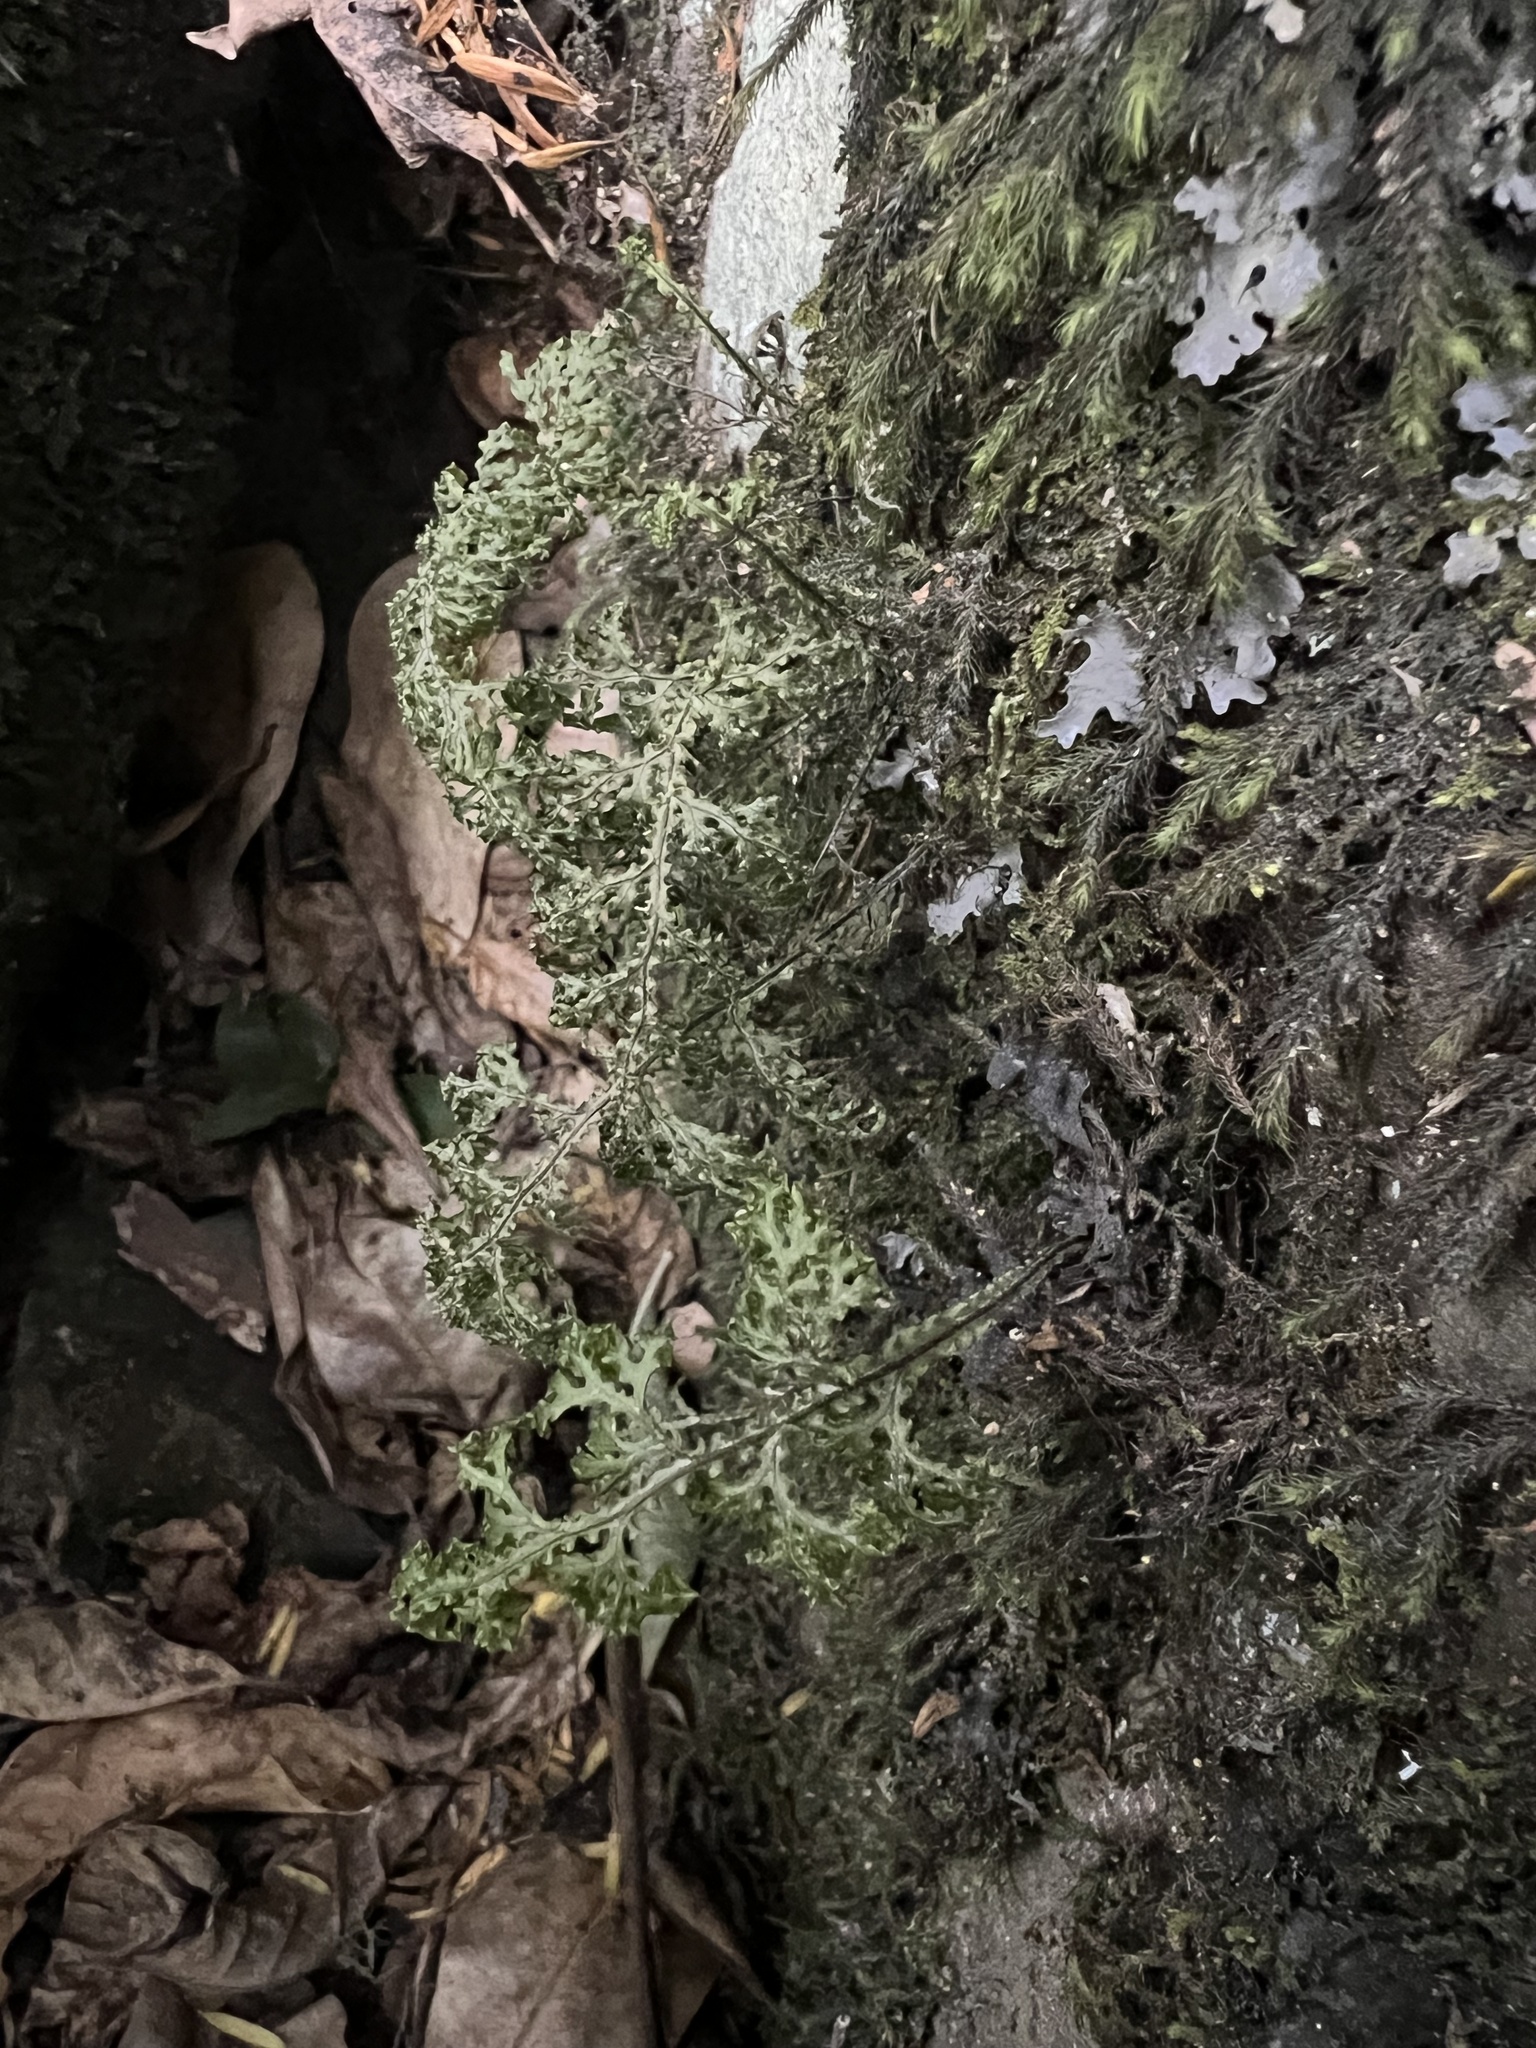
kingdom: Plantae
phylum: Tracheophyta
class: Polypodiopsida
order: Hymenophyllales
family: Hymenophyllaceae
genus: Hymenophyllum
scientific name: Hymenophyllum flexuosum
